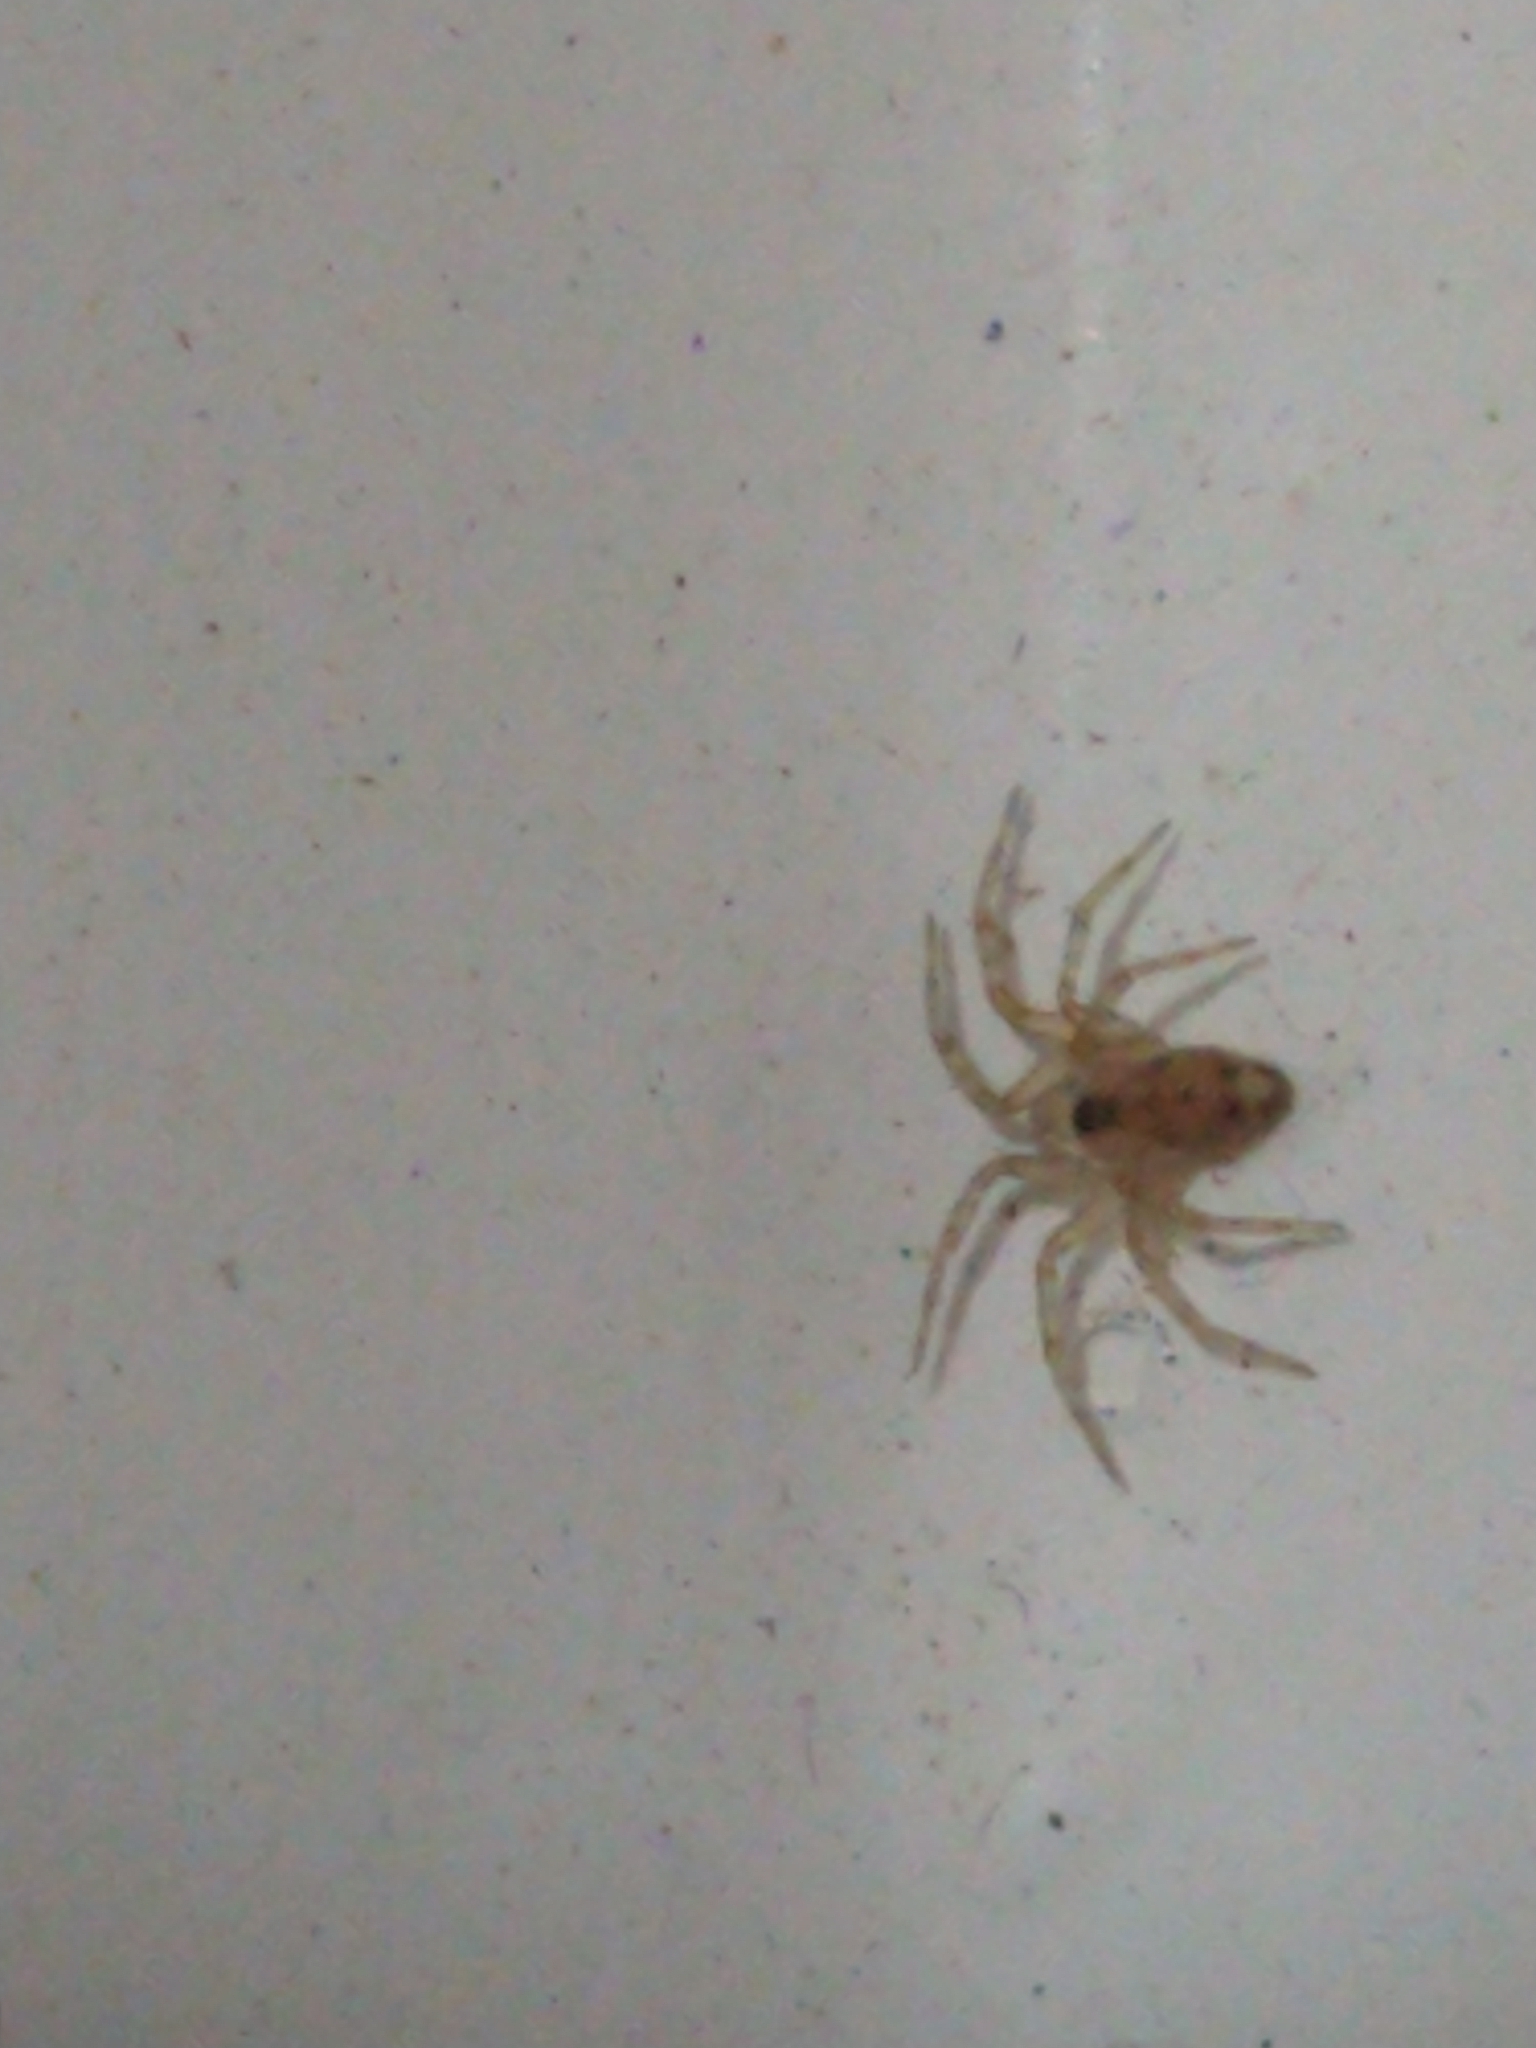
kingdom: Animalia
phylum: Arthropoda
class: Arachnida
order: Araneae
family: Oecobiidae
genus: Oecobius
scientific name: Oecobius navus
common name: Flatmesh weaver
